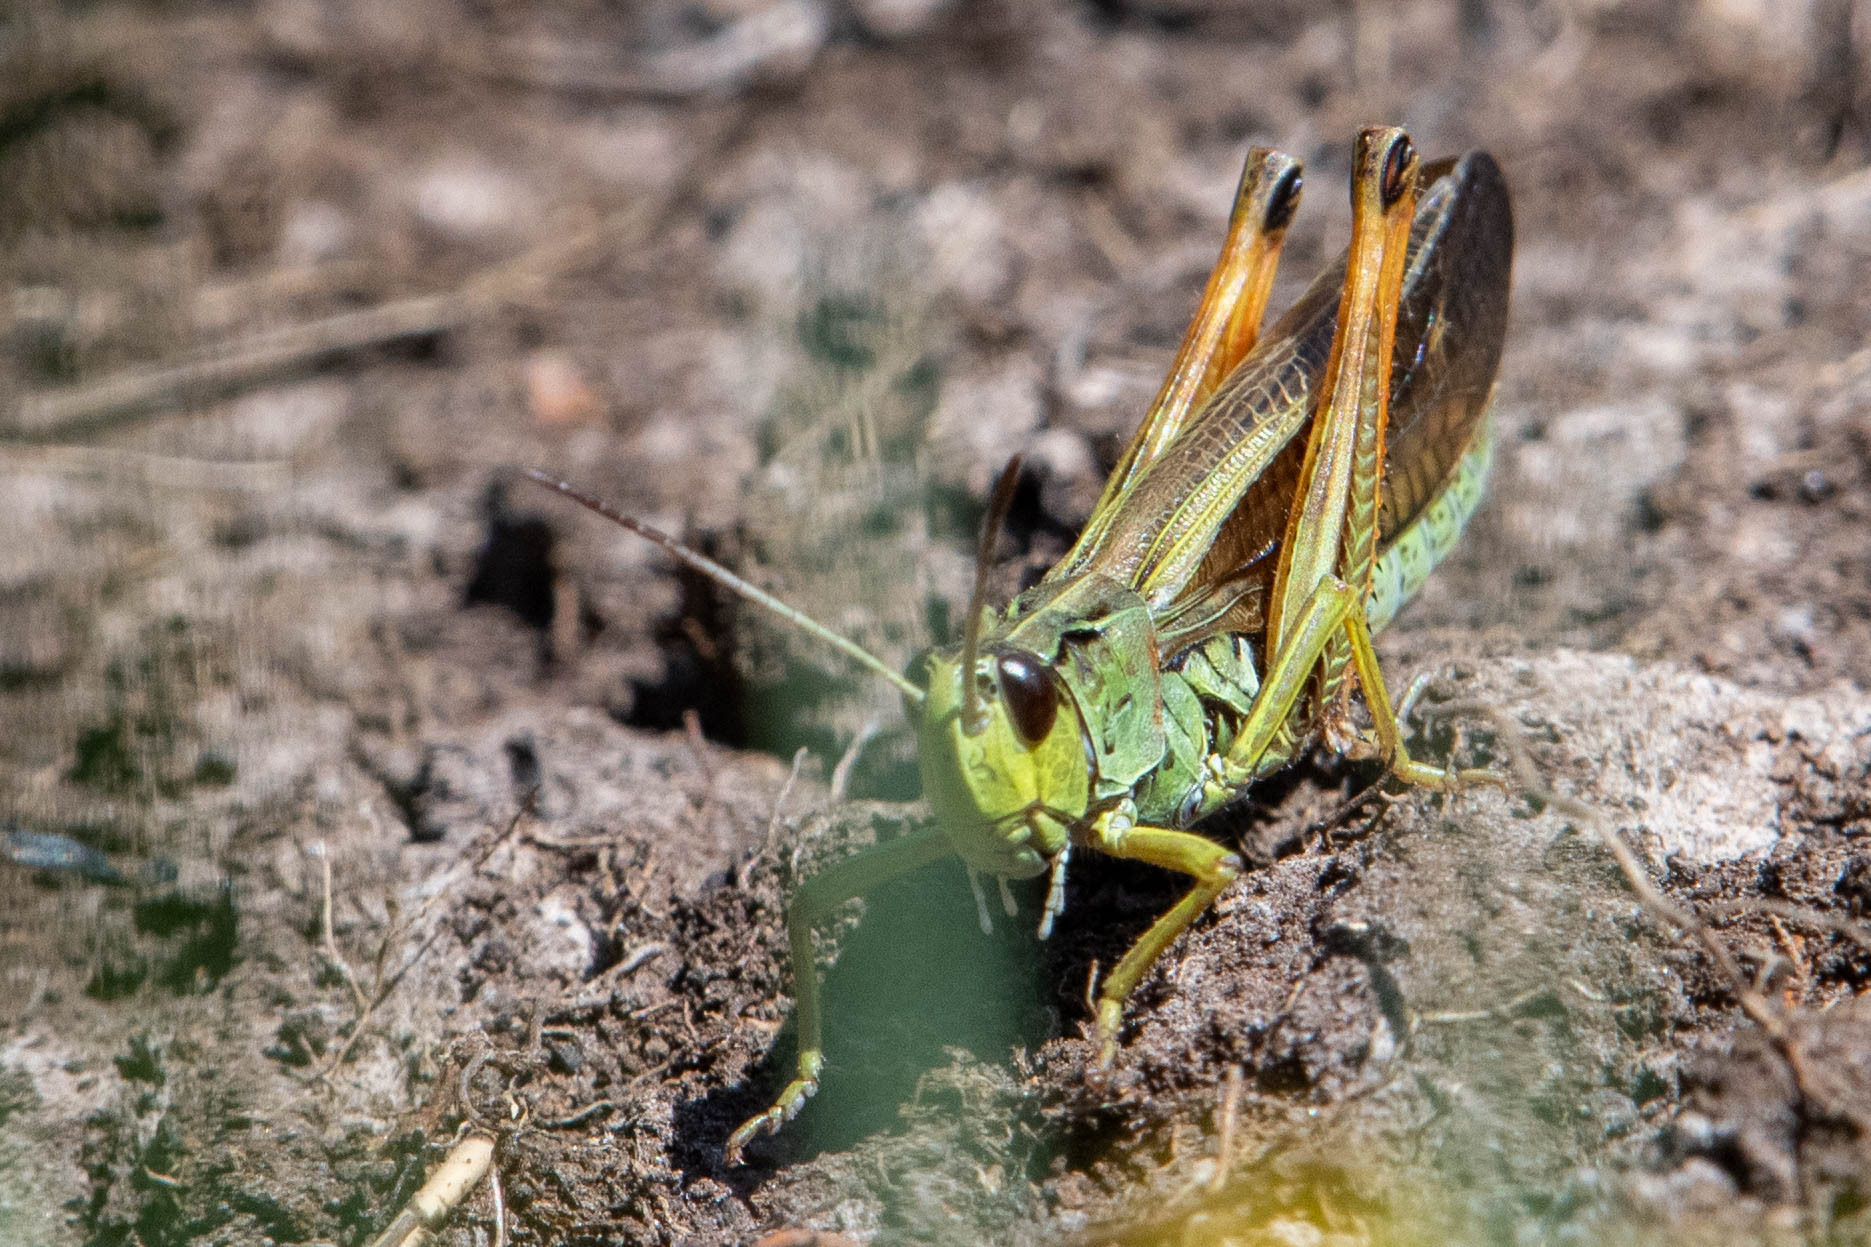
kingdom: Animalia
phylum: Arthropoda
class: Insecta
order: Orthoptera
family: Acrididae
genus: Stauroderus
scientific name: Stauroderus scalaris
